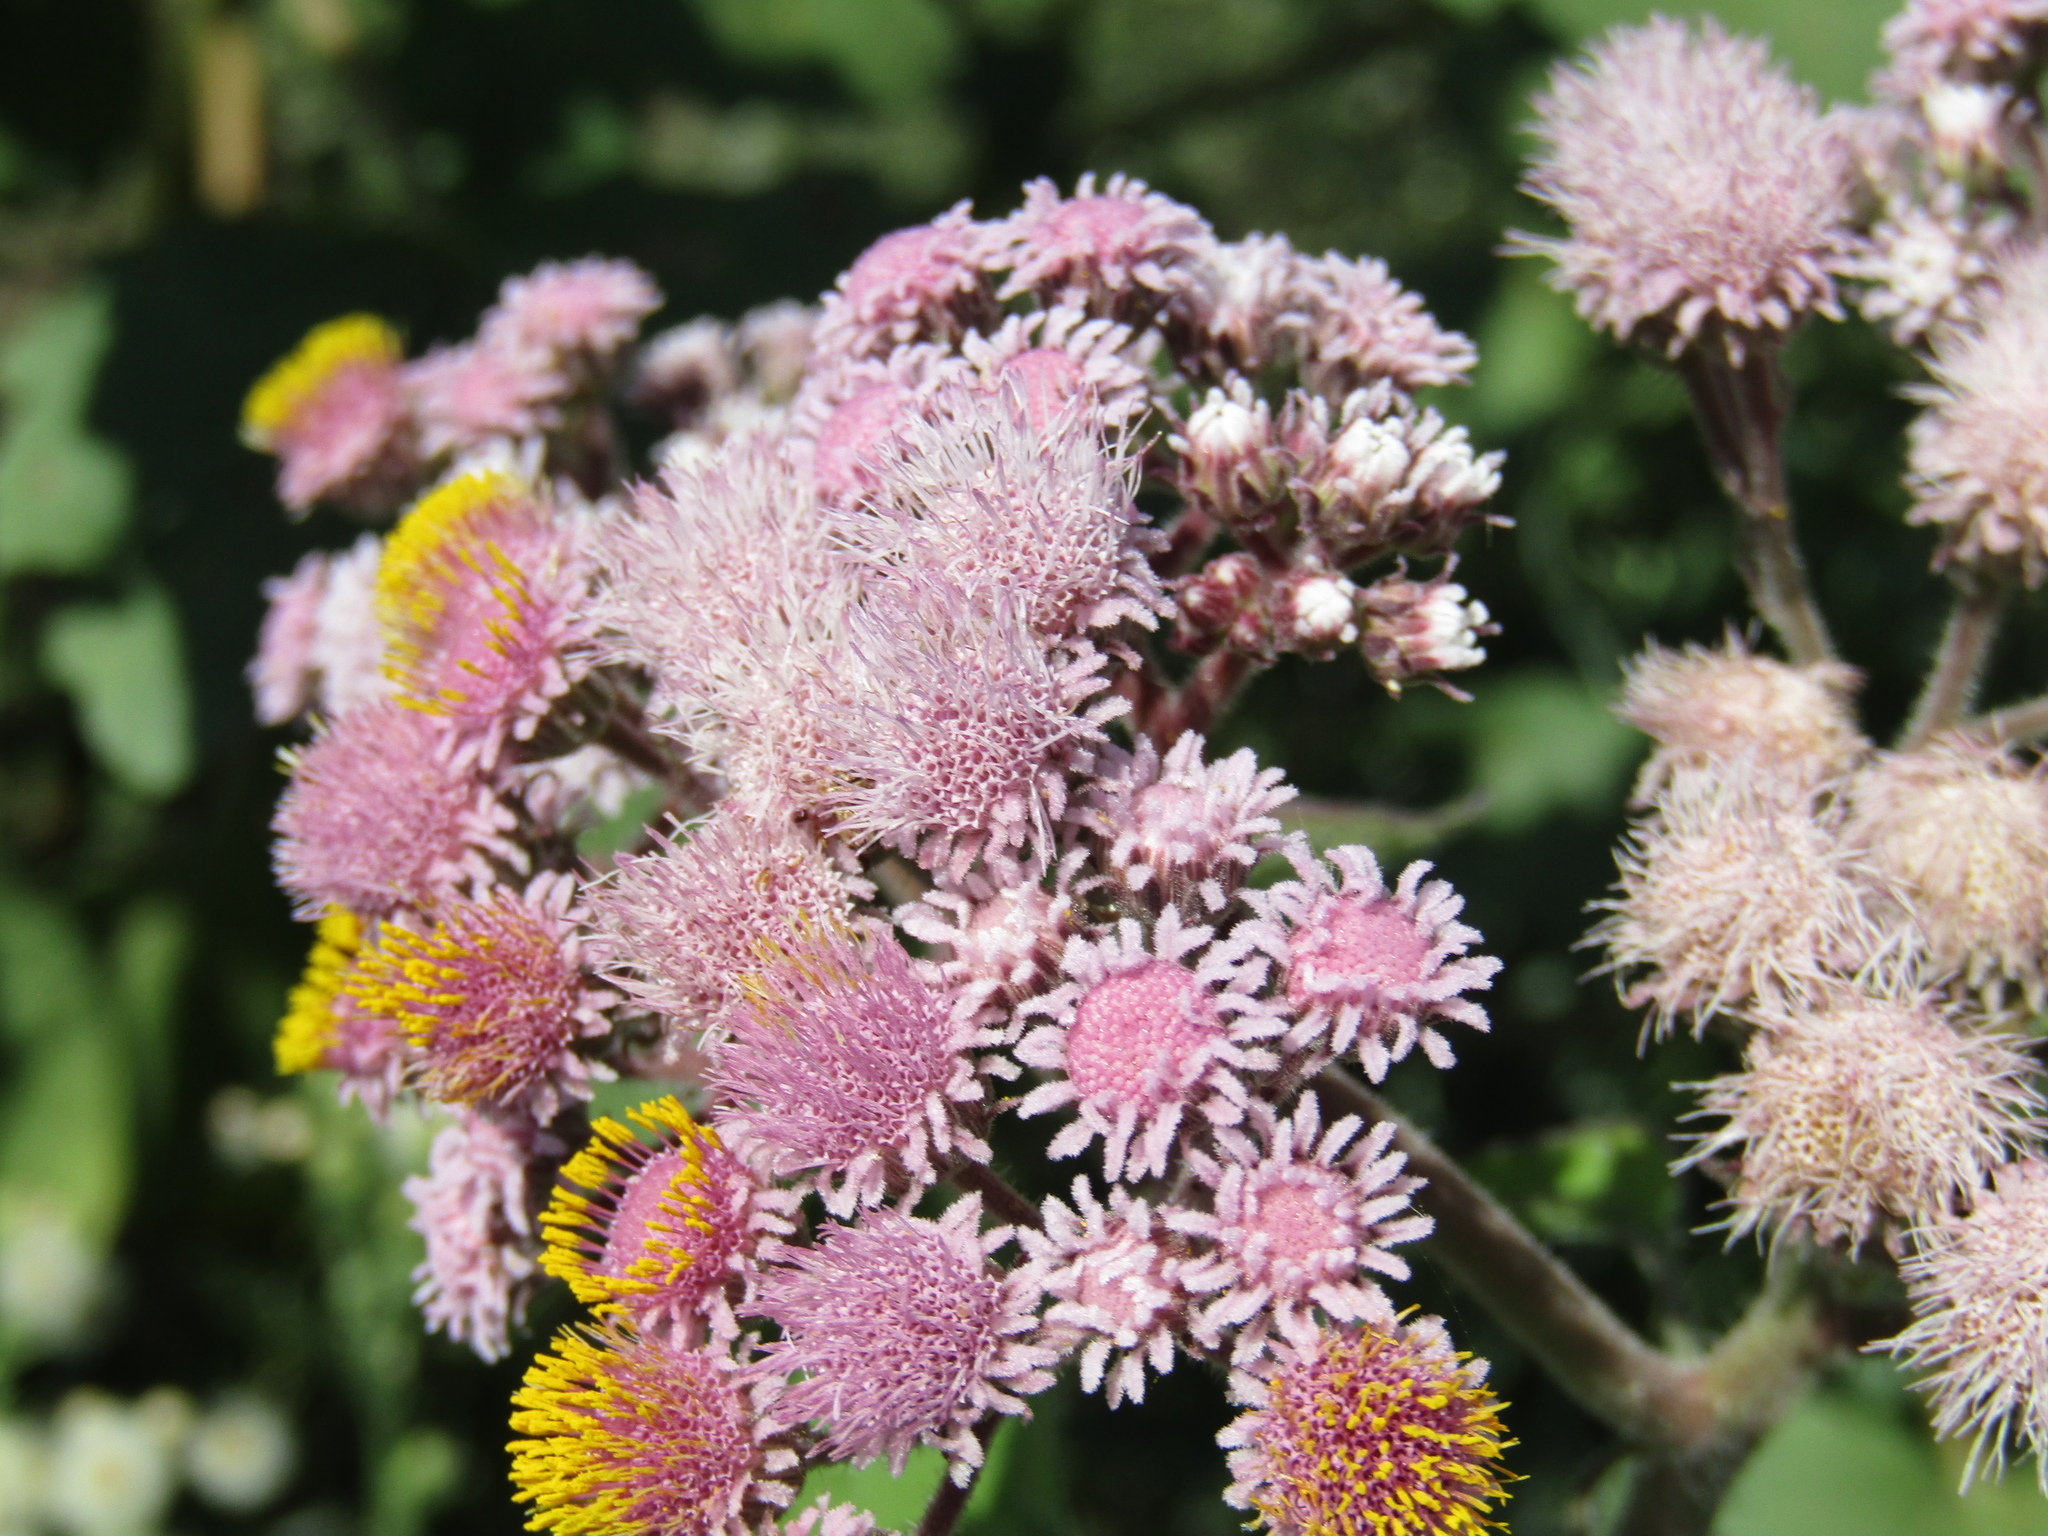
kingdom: Plantae
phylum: Tracheophyta
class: Magnoliopsida
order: Asterales
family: Asteraceae
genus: Urolepis
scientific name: Urolepis hecatantha
